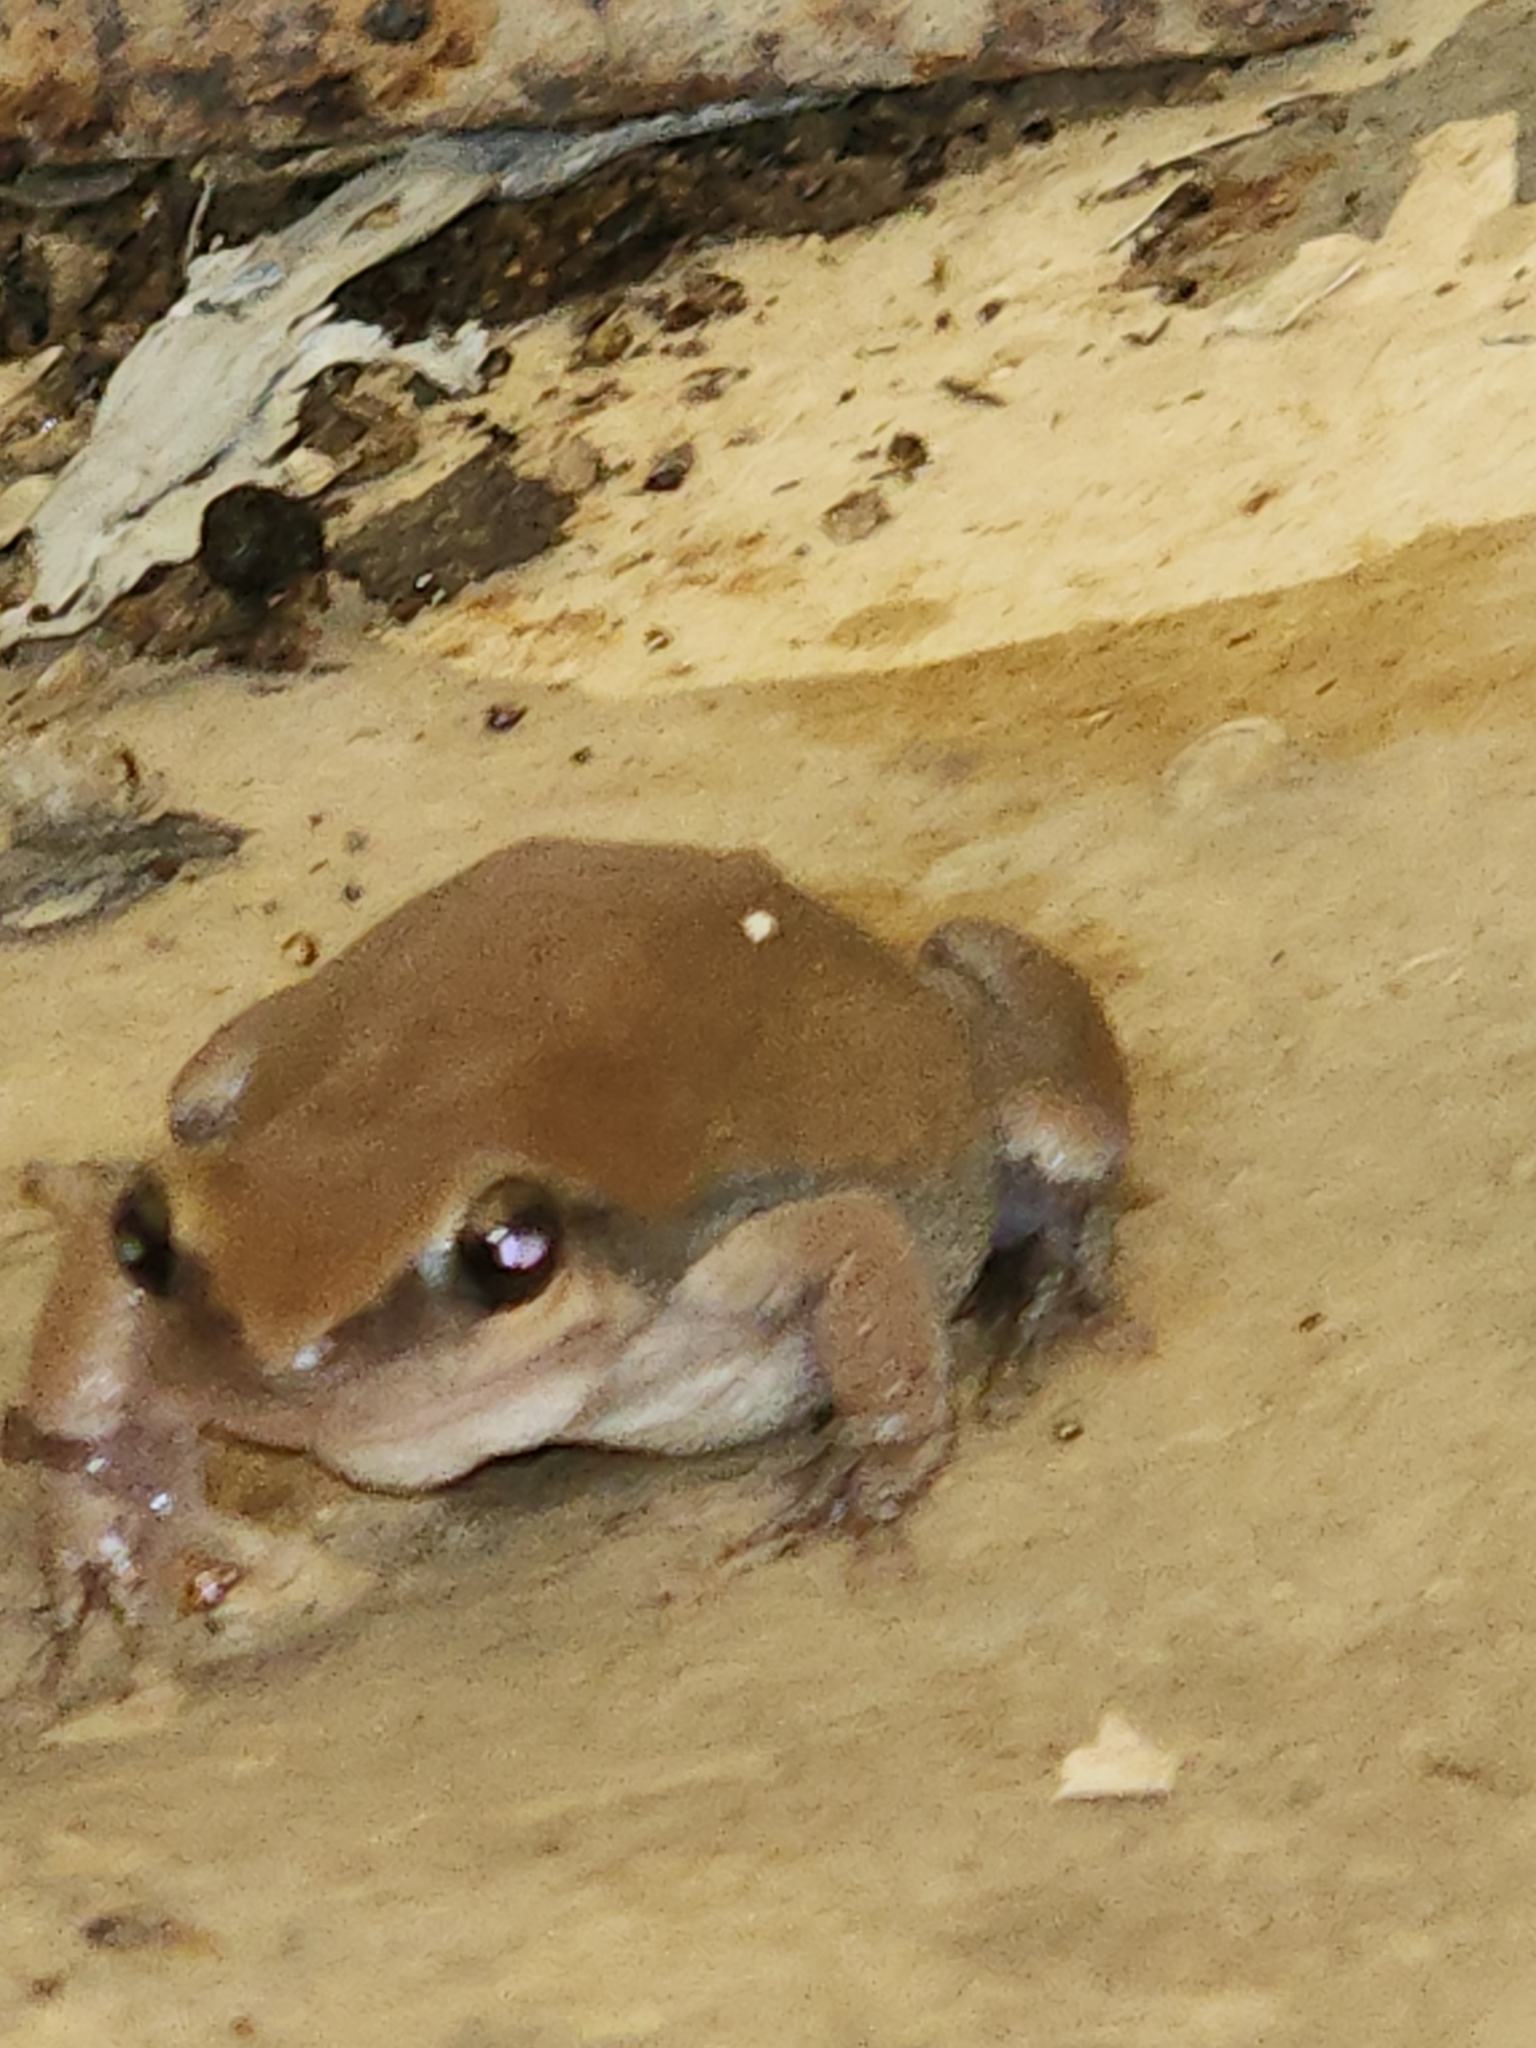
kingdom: Animalia
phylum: Chordata
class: Amphibia
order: Anura
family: Pelodryadidae
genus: Litoria
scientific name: Litoria rubella
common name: Desert tree frog
